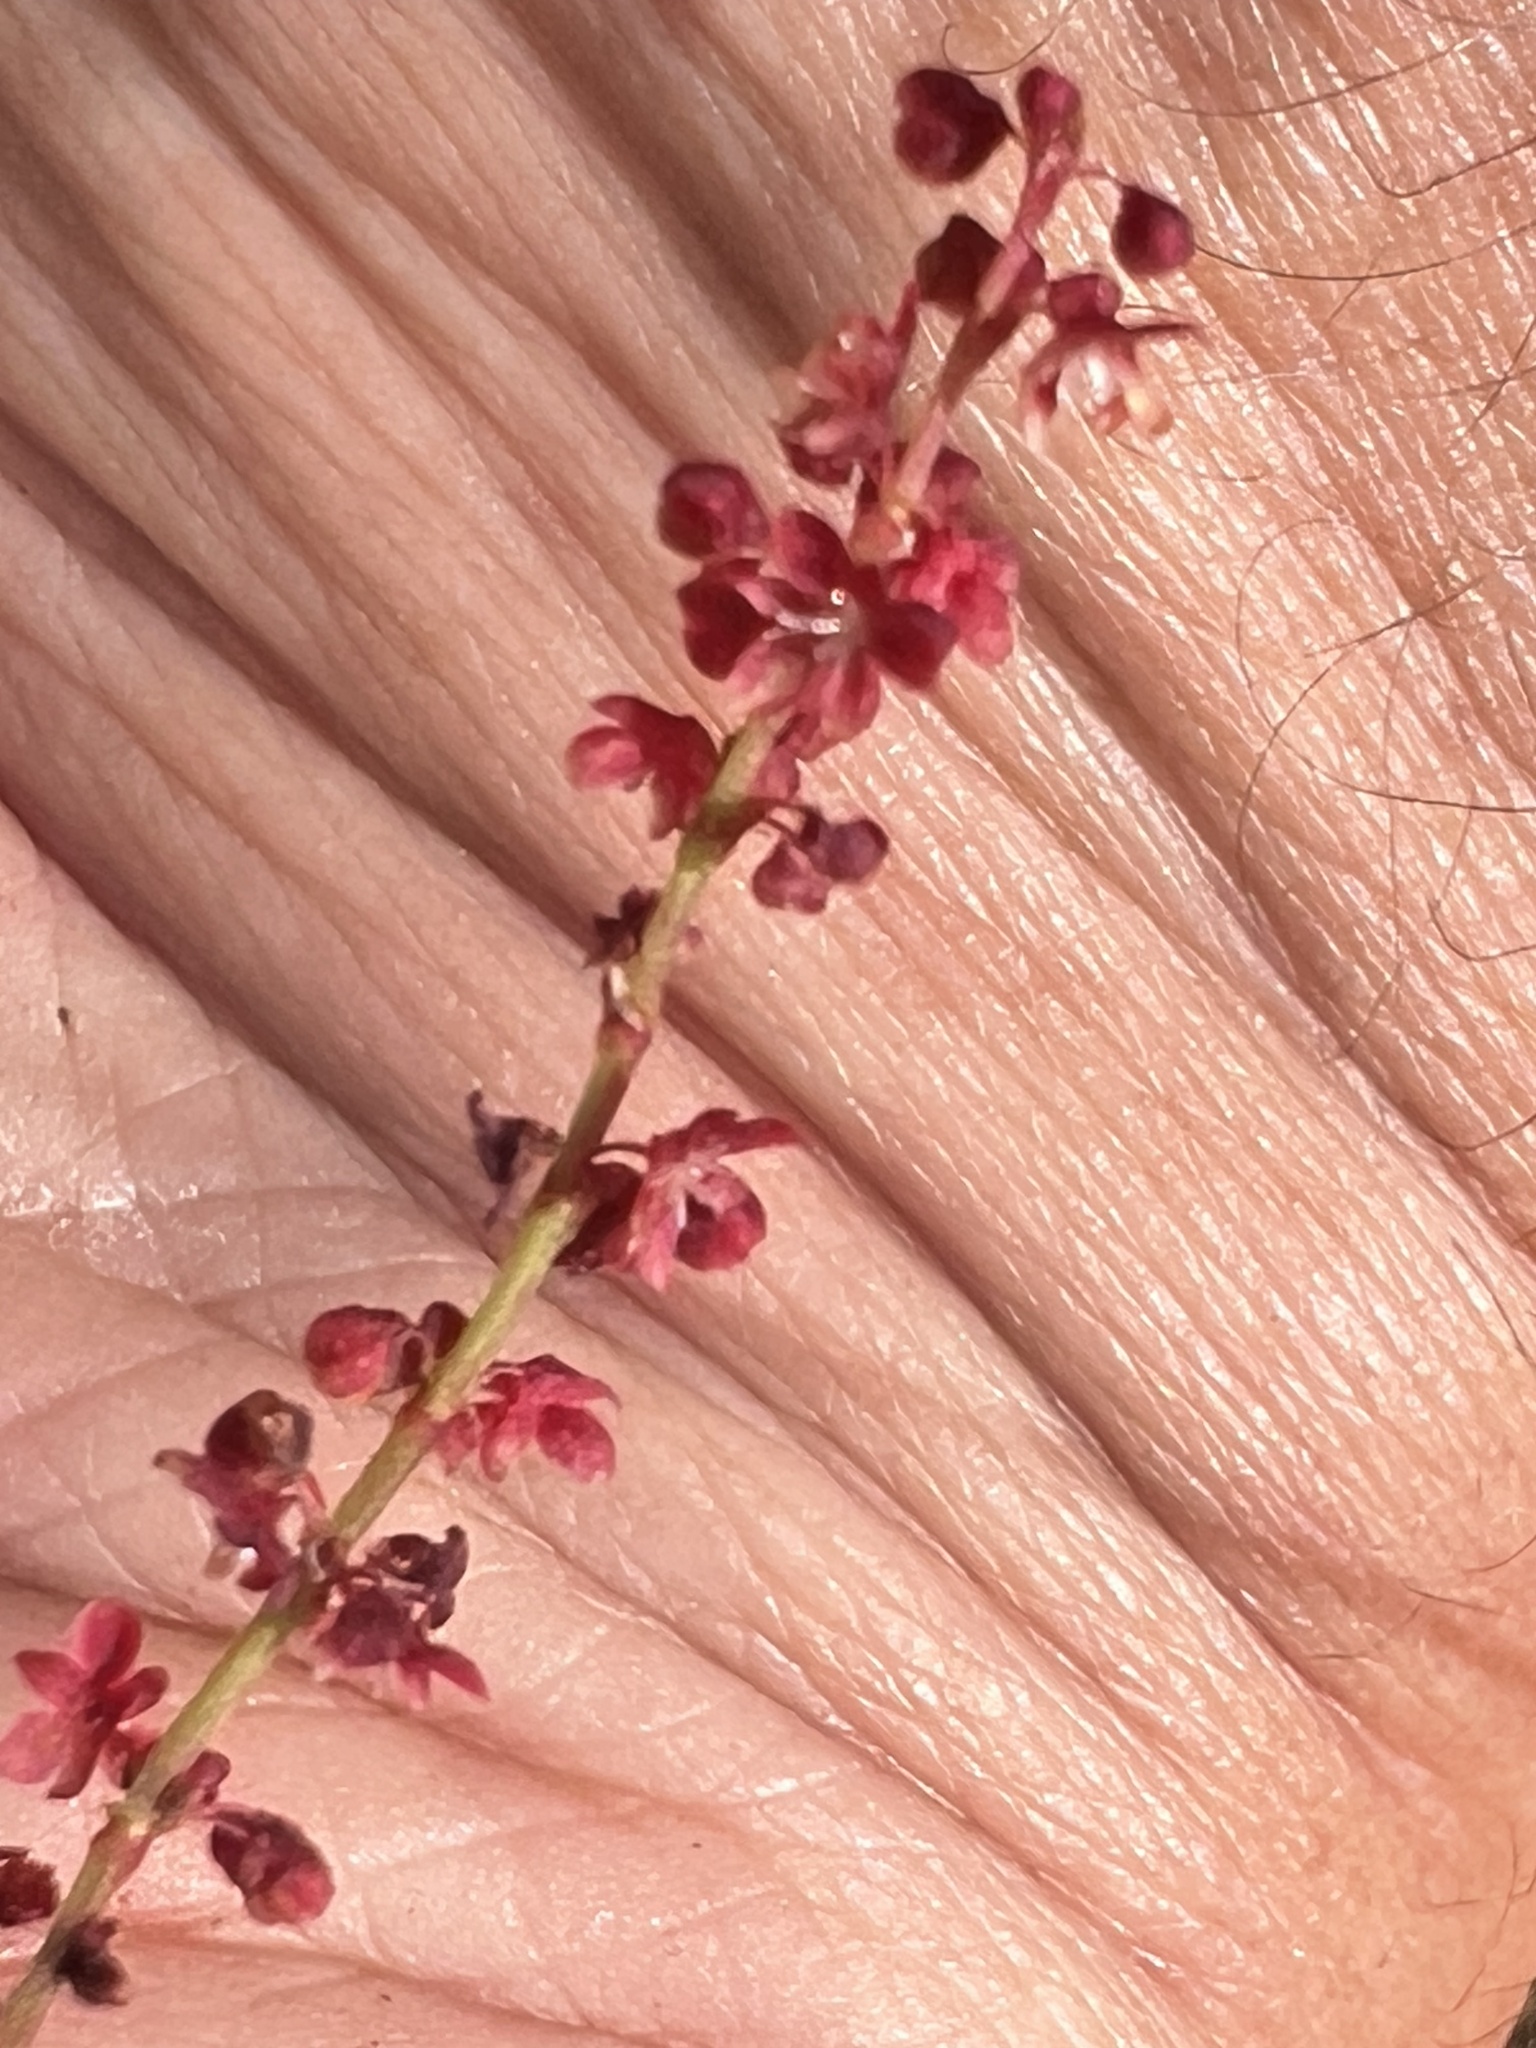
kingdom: Plantae
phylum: Tracheophyta
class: Magnoliopsida
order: Caryophyllales
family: Polygonaceae
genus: Rumex
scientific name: Rumex acetosella
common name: Common sheep sorrel
